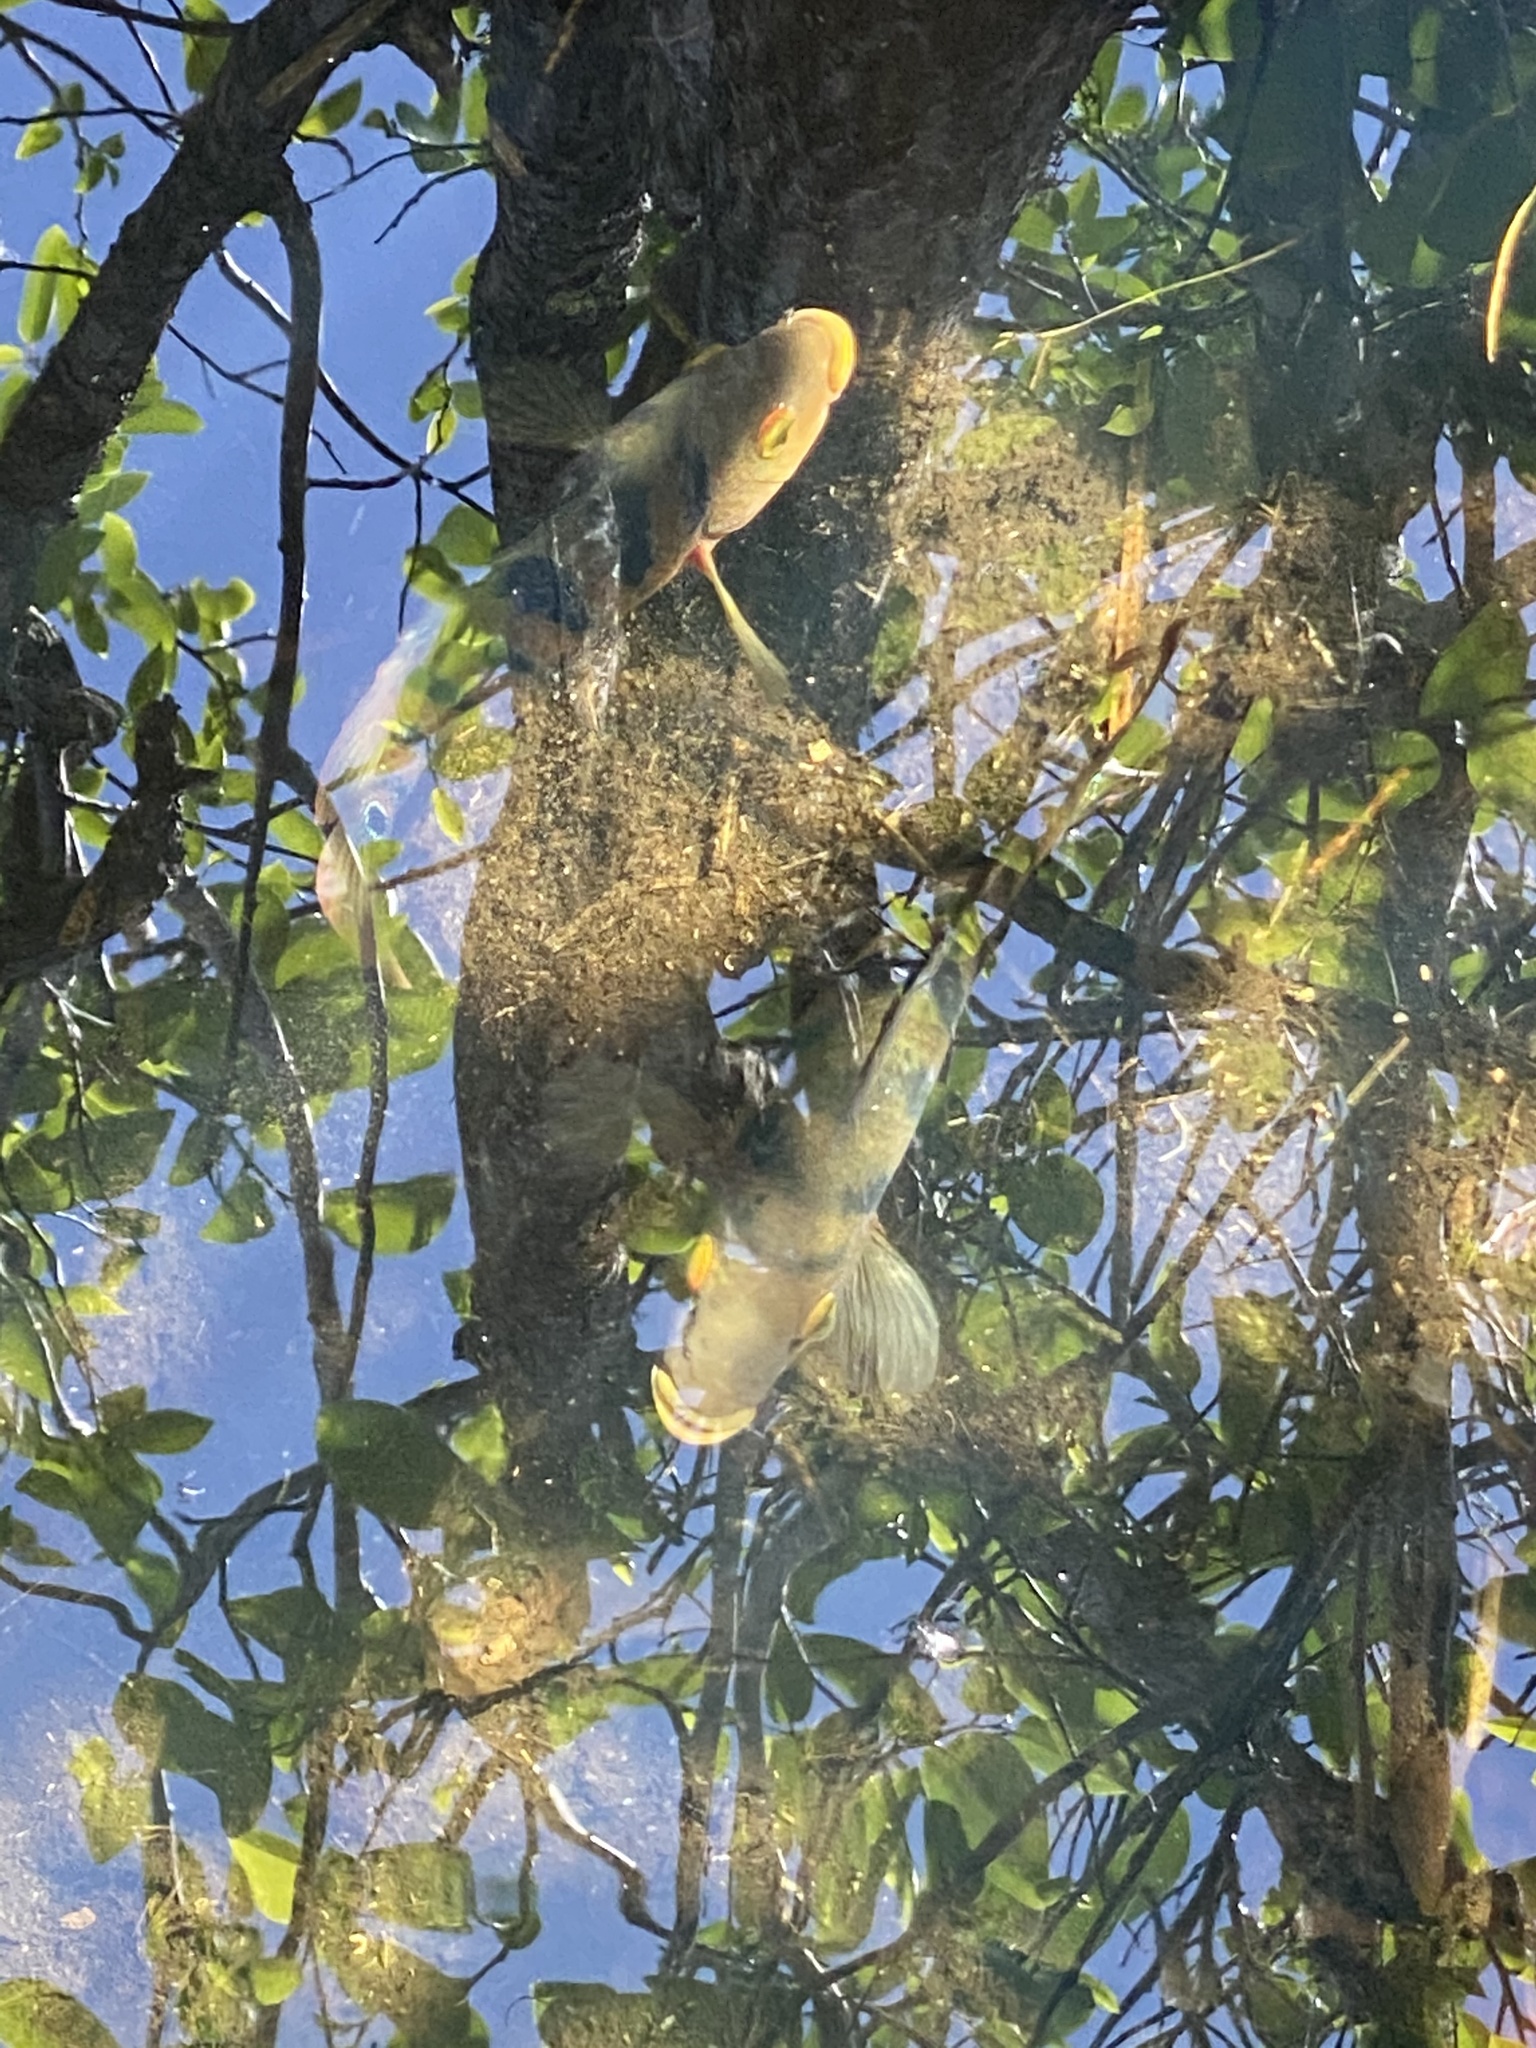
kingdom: Animalia
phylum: Chordata
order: Perciformes
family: Cichlidae
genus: Mayaheros
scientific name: Mayaheros urophthalmus
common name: Mayan cichlid
